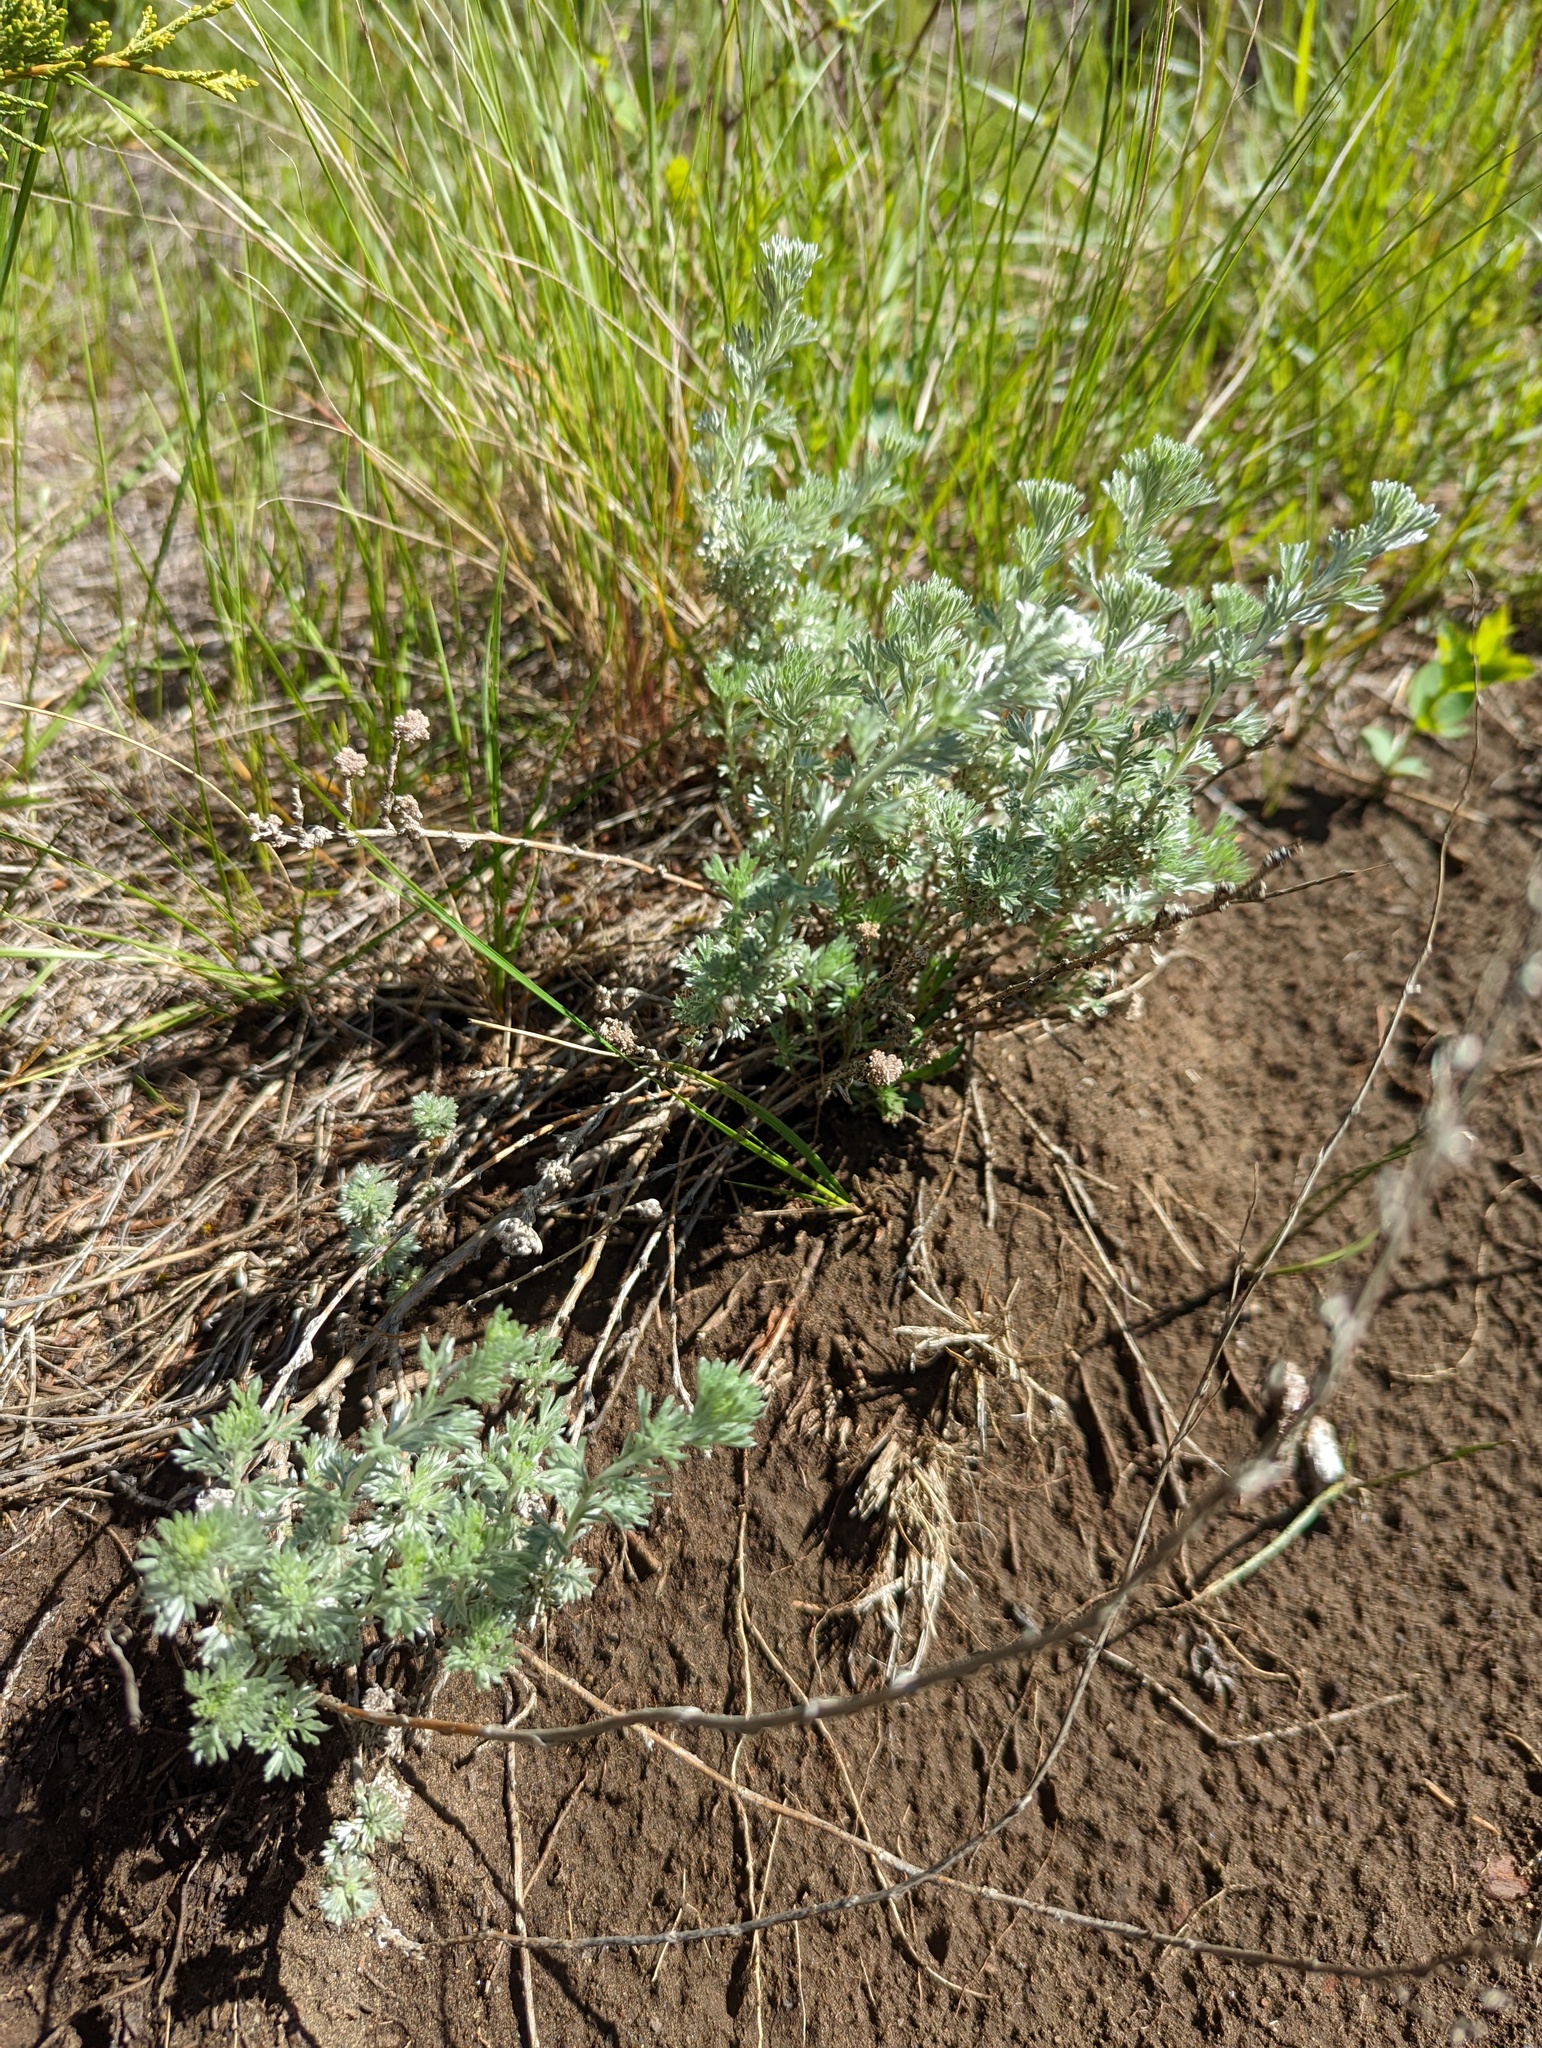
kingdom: Plantae
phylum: Tracheophyta
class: Magnoliopsida
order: Asterales
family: Asteraceae
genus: Artemisia
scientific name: Artemisia frigida
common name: Prairie sagewort
